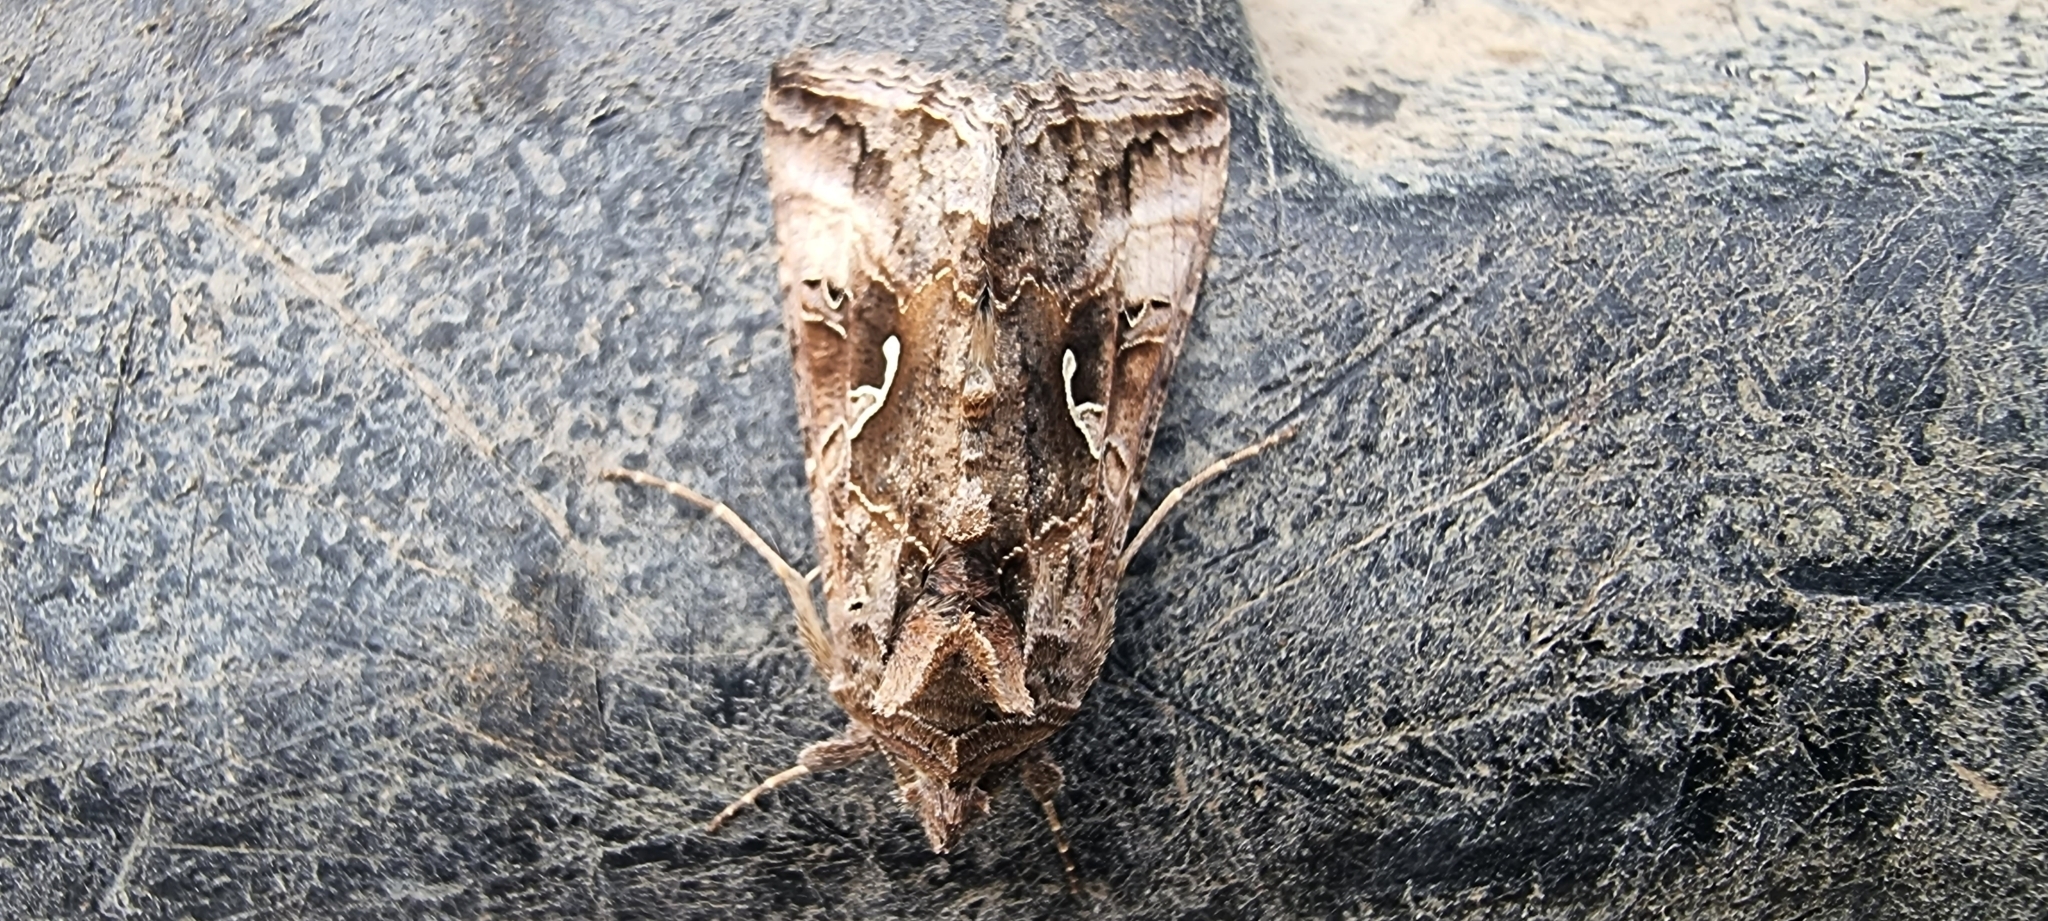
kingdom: Animalia
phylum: Arthropoda
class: Insecta
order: Lepidoptera
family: Noctuidae
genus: Autographa
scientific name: Autographa gamma
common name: Silver y
